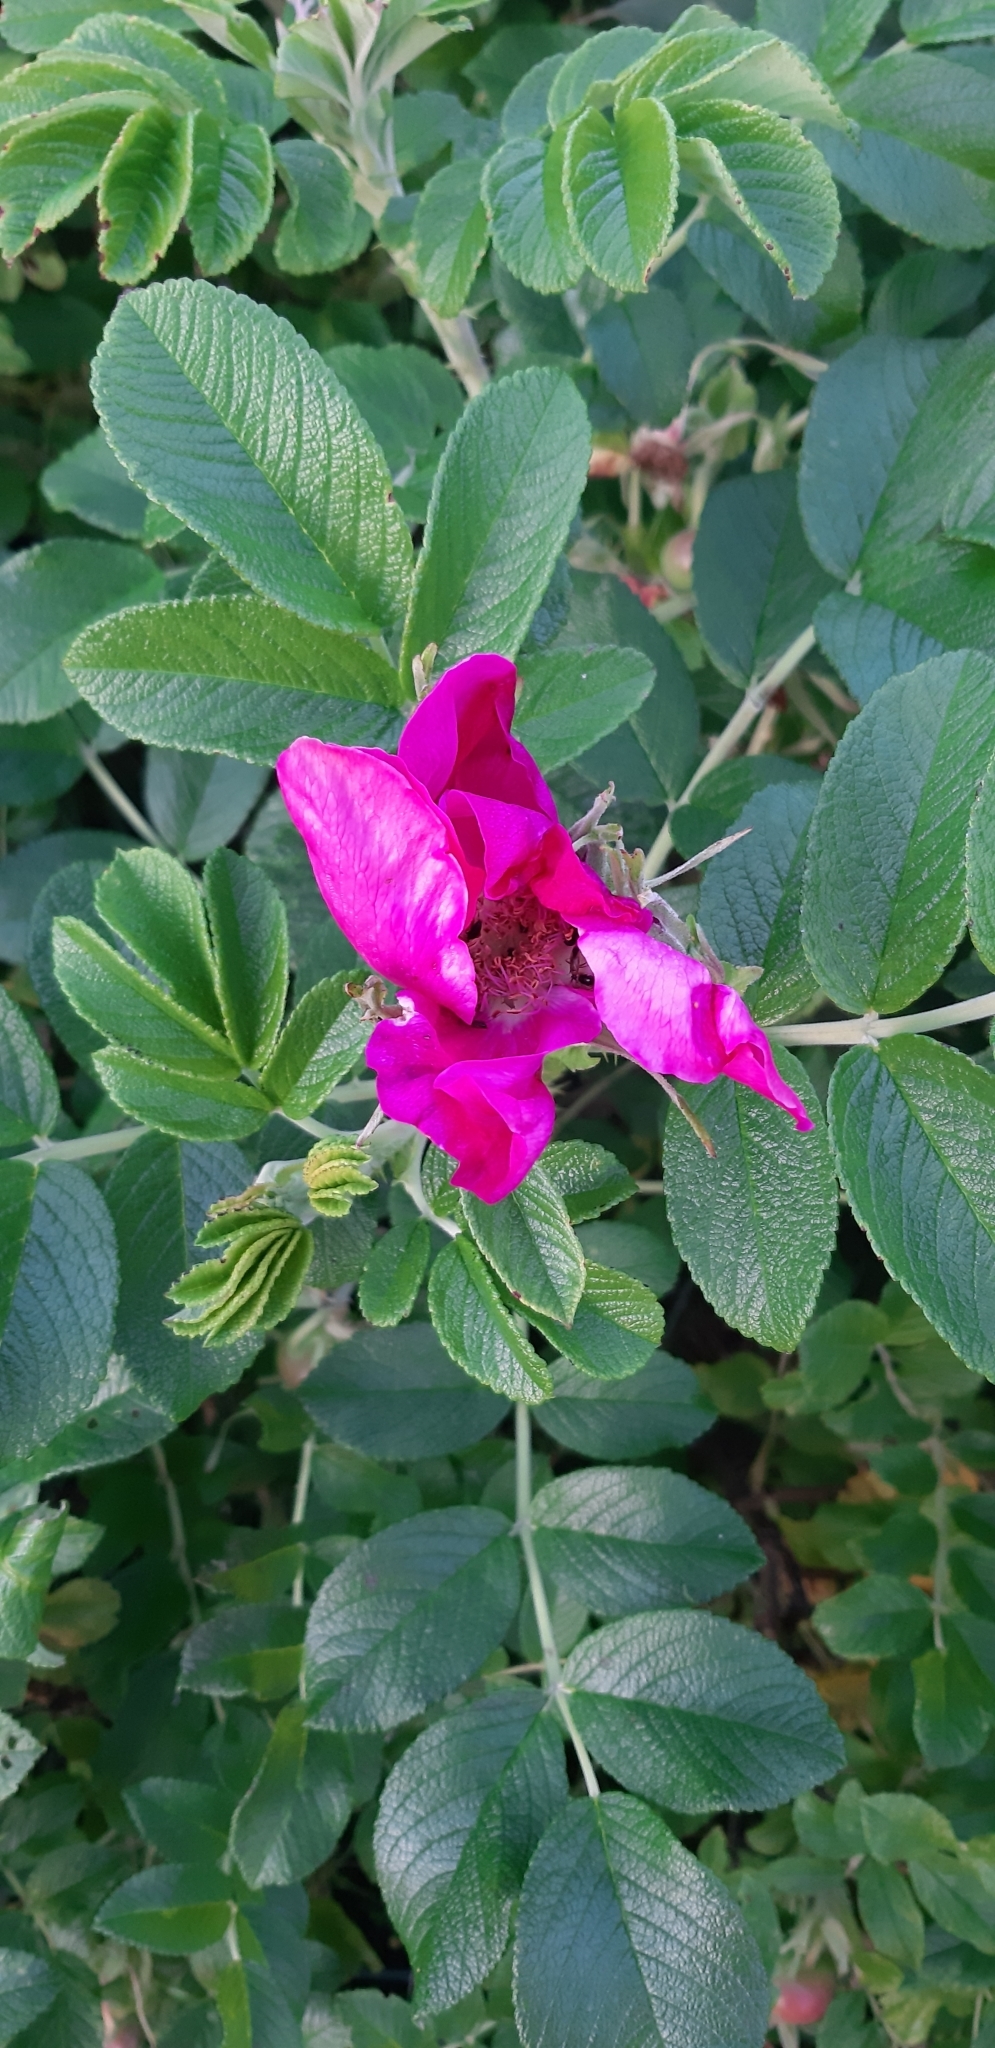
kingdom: Plantae
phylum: Tracheophyta
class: Magnoliopsida
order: Rosales
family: Rosaceae
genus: Rosa
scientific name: Rosa rugosa
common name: Japanese rose
